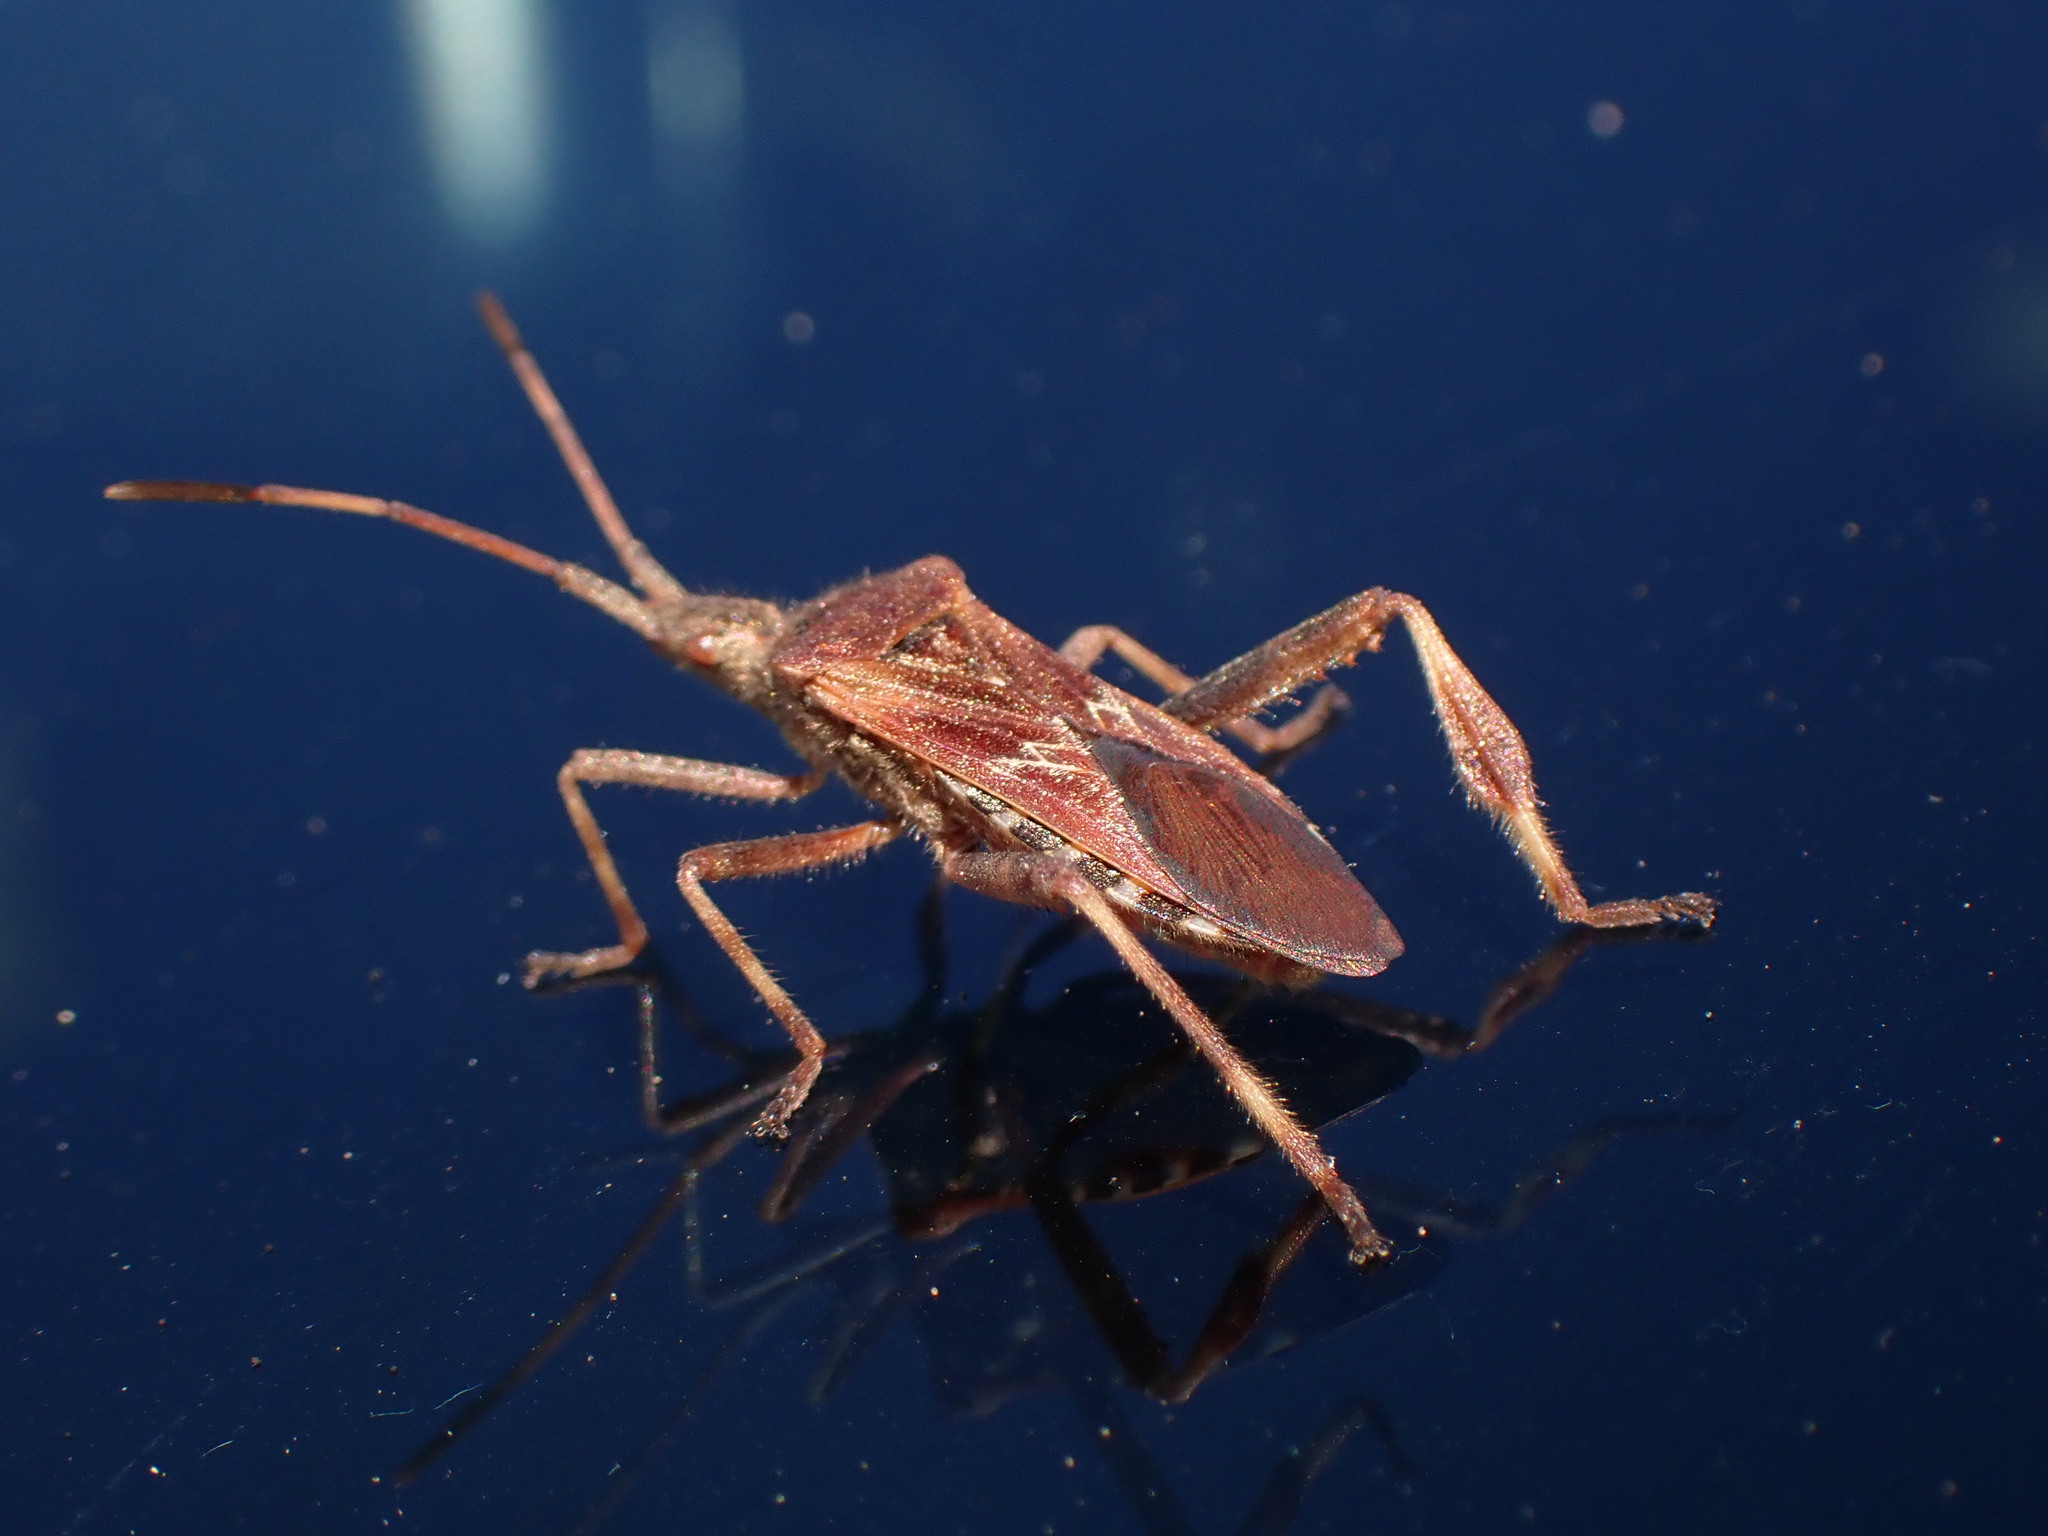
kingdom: Animalia
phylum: Arthropoda
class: Insecta
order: Hemiptera
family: Coreidae
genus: Leptoglossus
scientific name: Leptoglossus occidentalis
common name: Western conifer-seed bug
